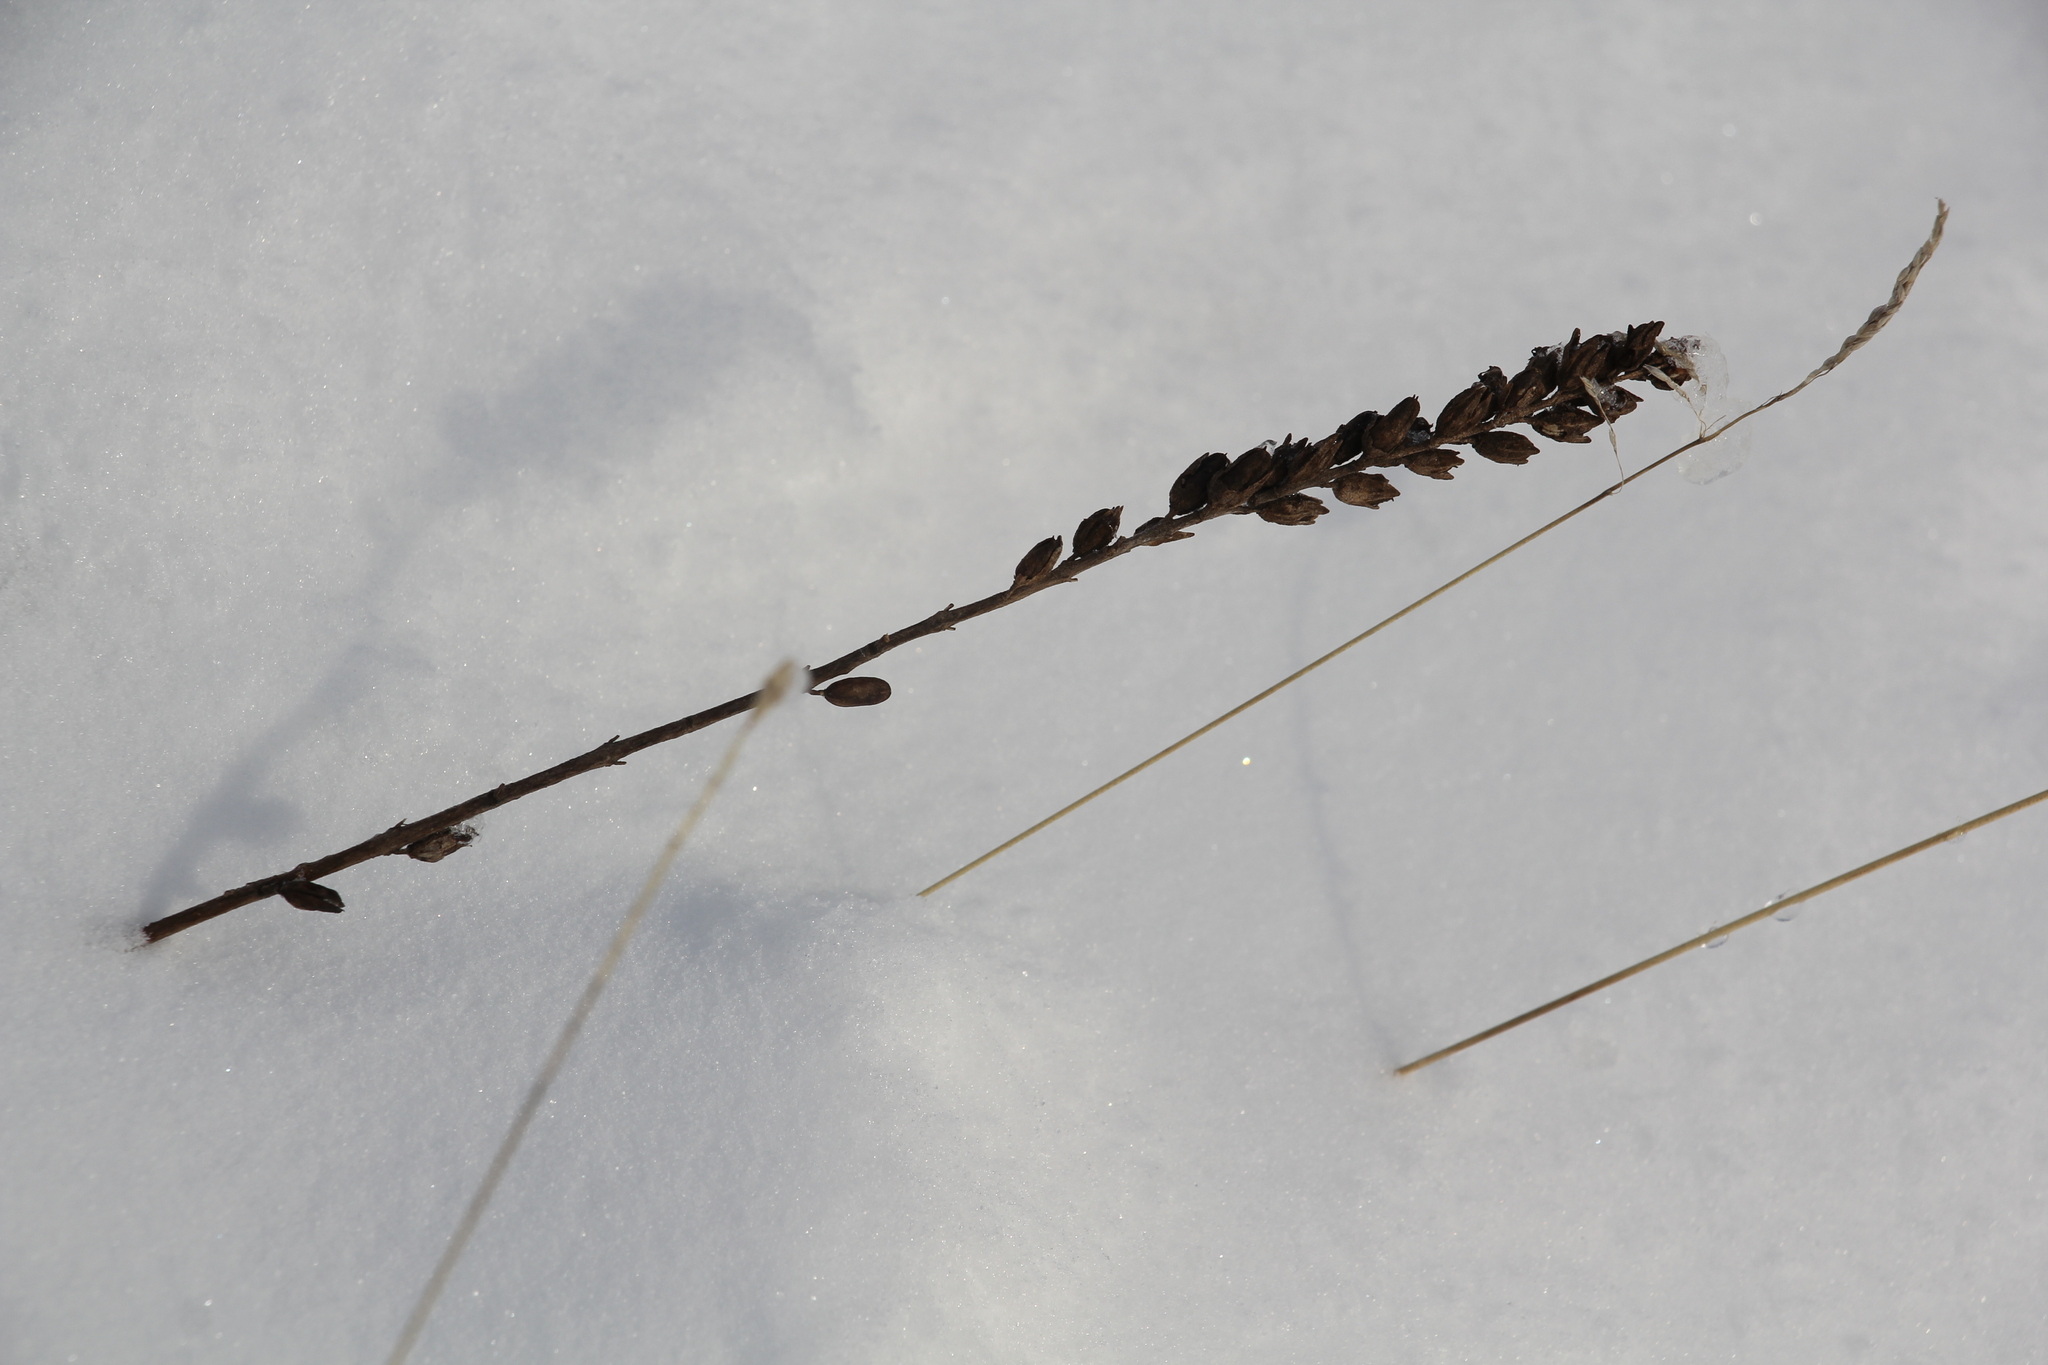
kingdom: Plantae
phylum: Tracheophyta
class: Magnoliopsida
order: Lamiales
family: Orobanchaceae
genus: Odontites
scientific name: Odontites vulgaris
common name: Broomrape
